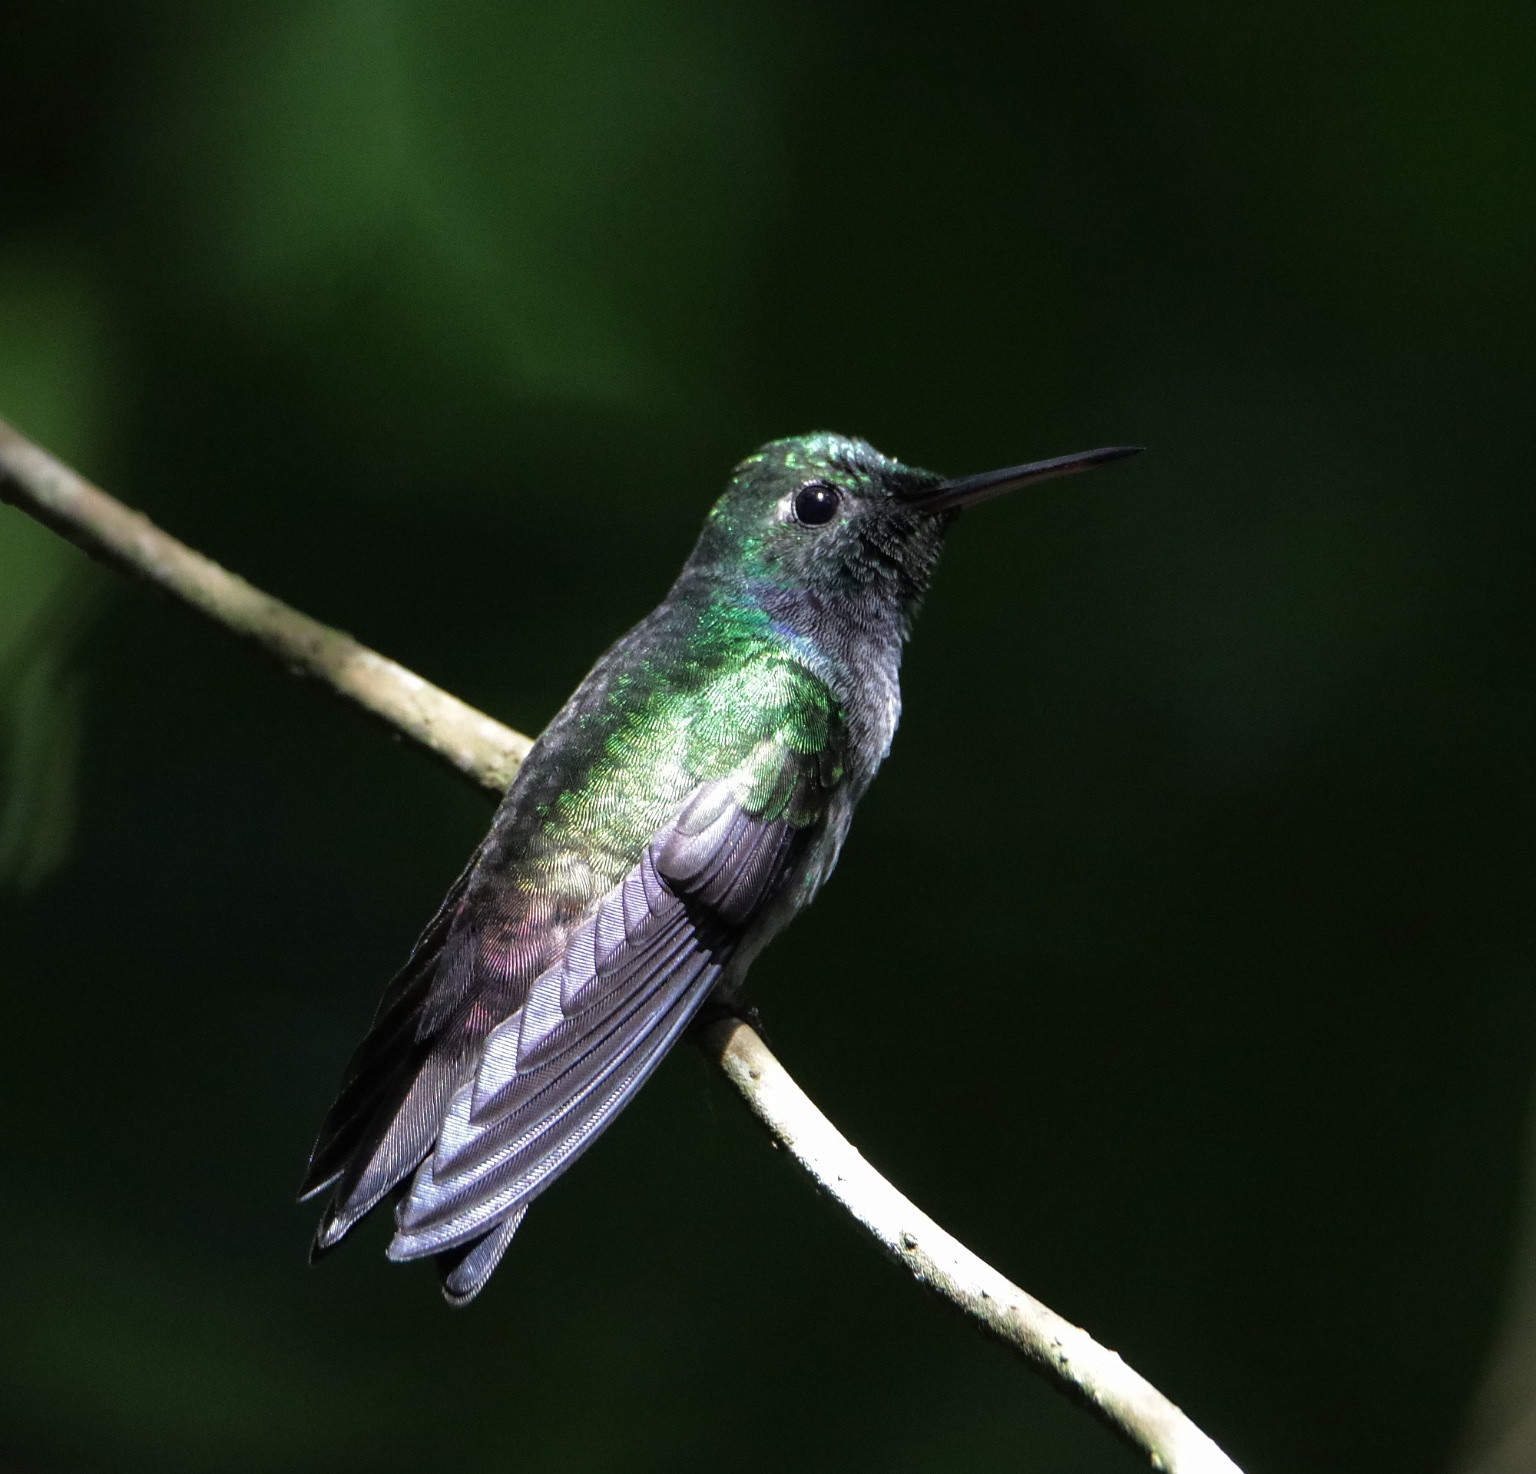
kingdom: Animalia
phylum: Chordata
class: Aves
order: Apodiformes
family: Trochilidae
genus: Polyerata
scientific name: Polyerata amabilis
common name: Blue-chested hummingbird
